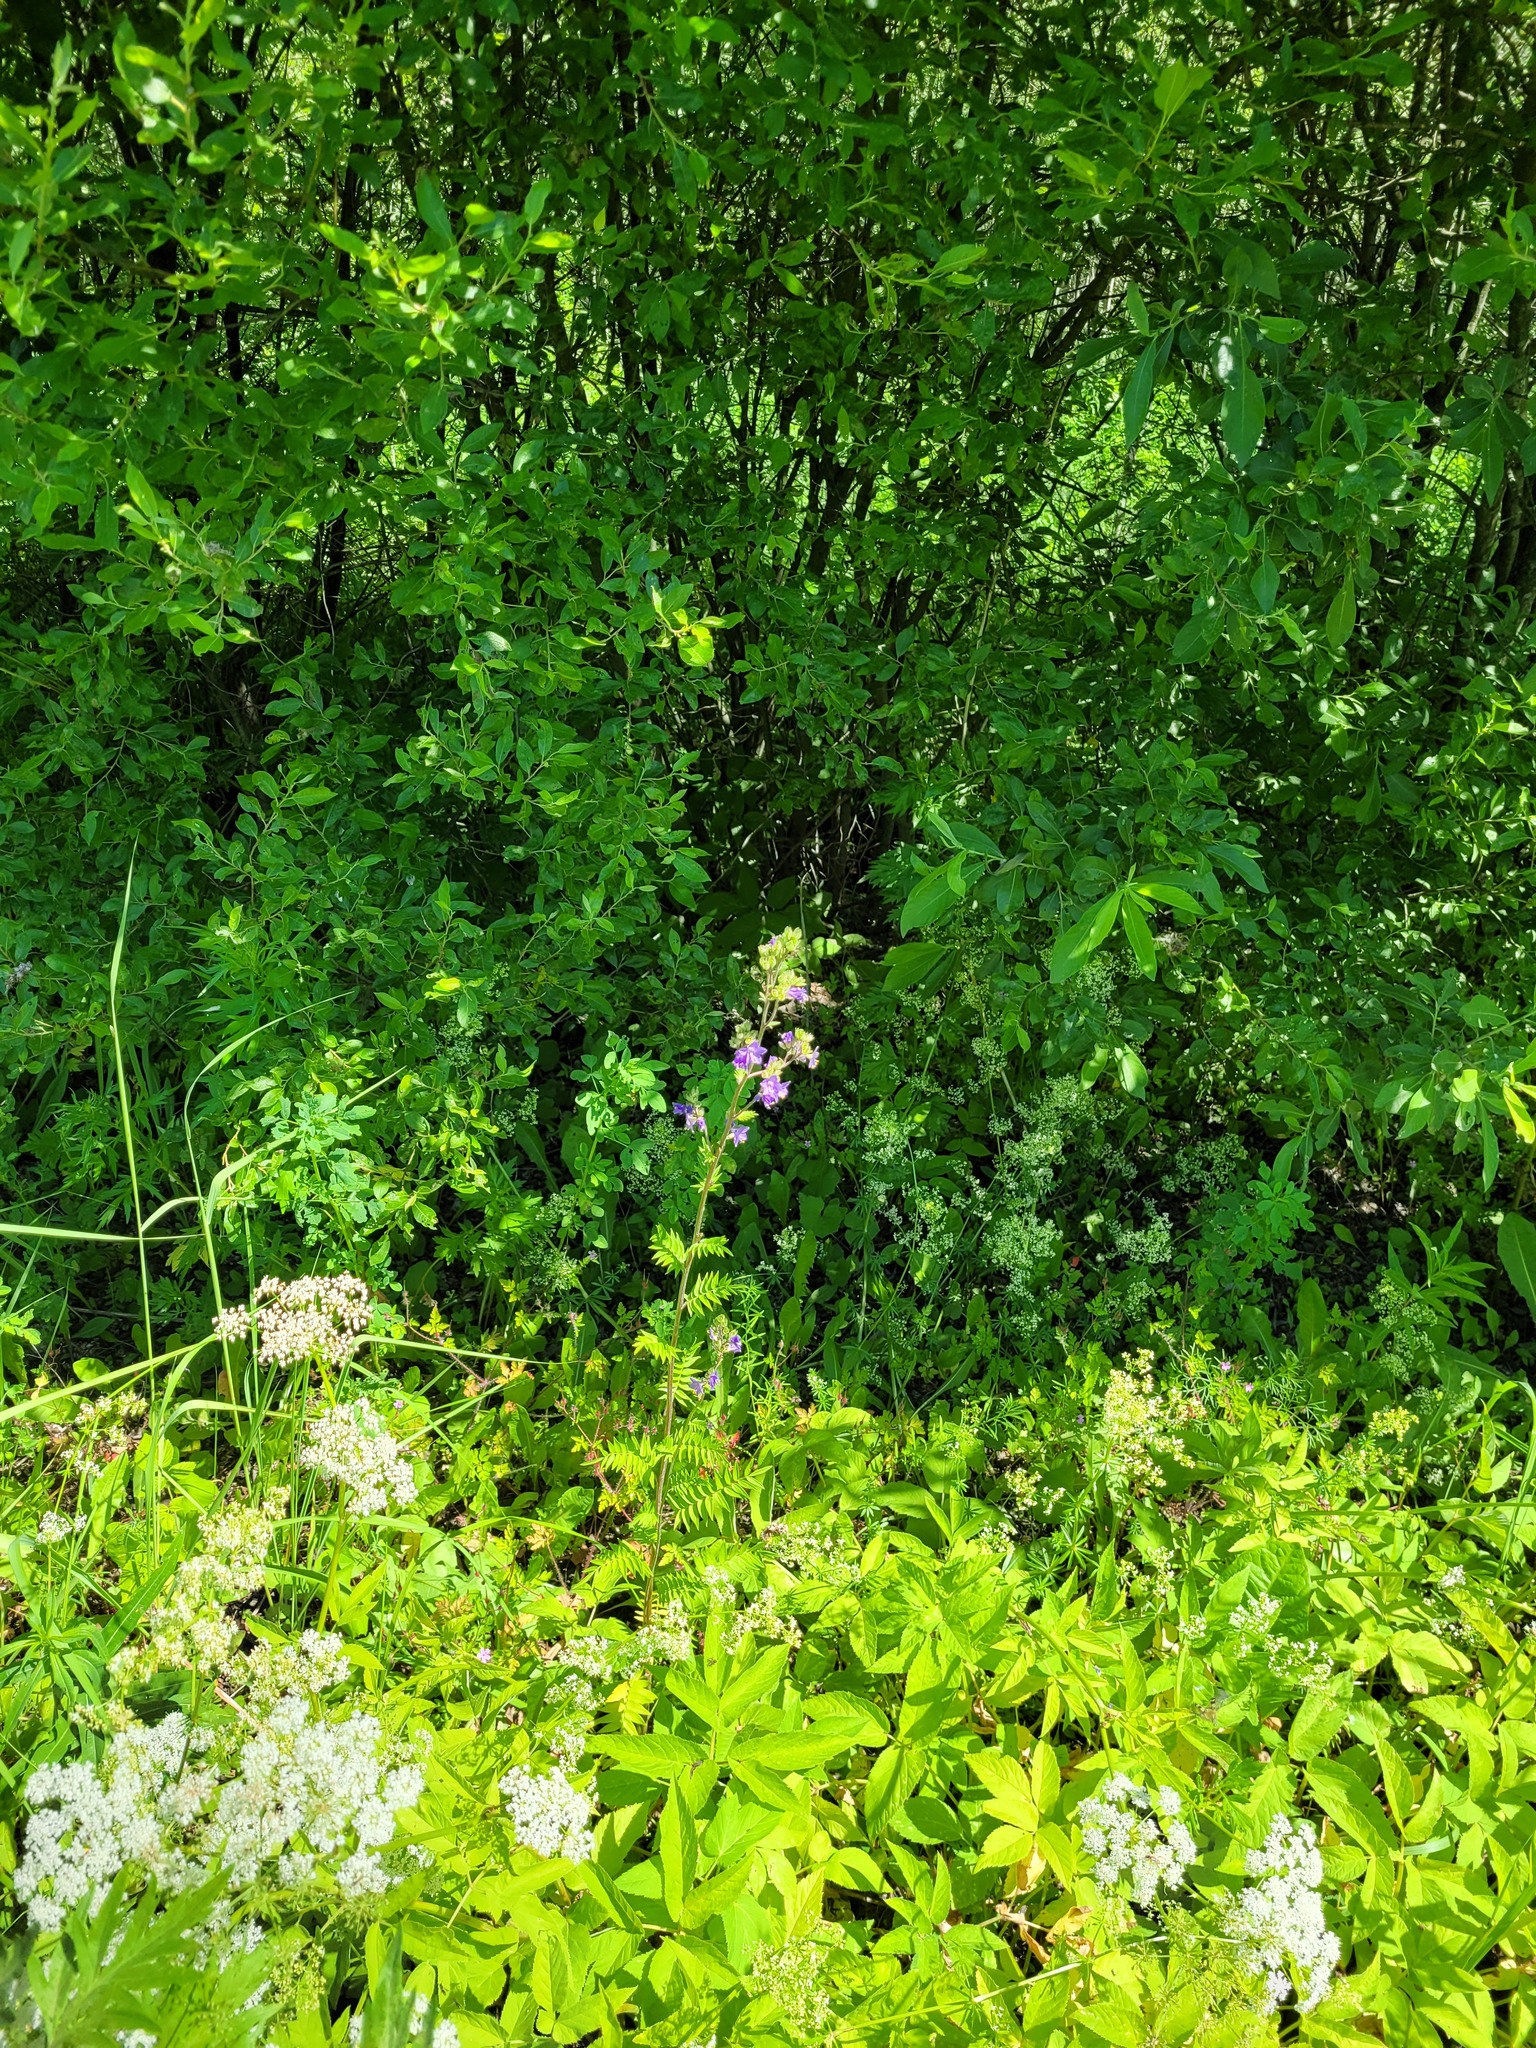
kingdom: Plantae
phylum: Tracheophyta
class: Magnoliopsida
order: Ericales
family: Polemoniaceae
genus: Polemonium
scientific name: Polemonium caeruleum
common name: Jacob's-ladder
